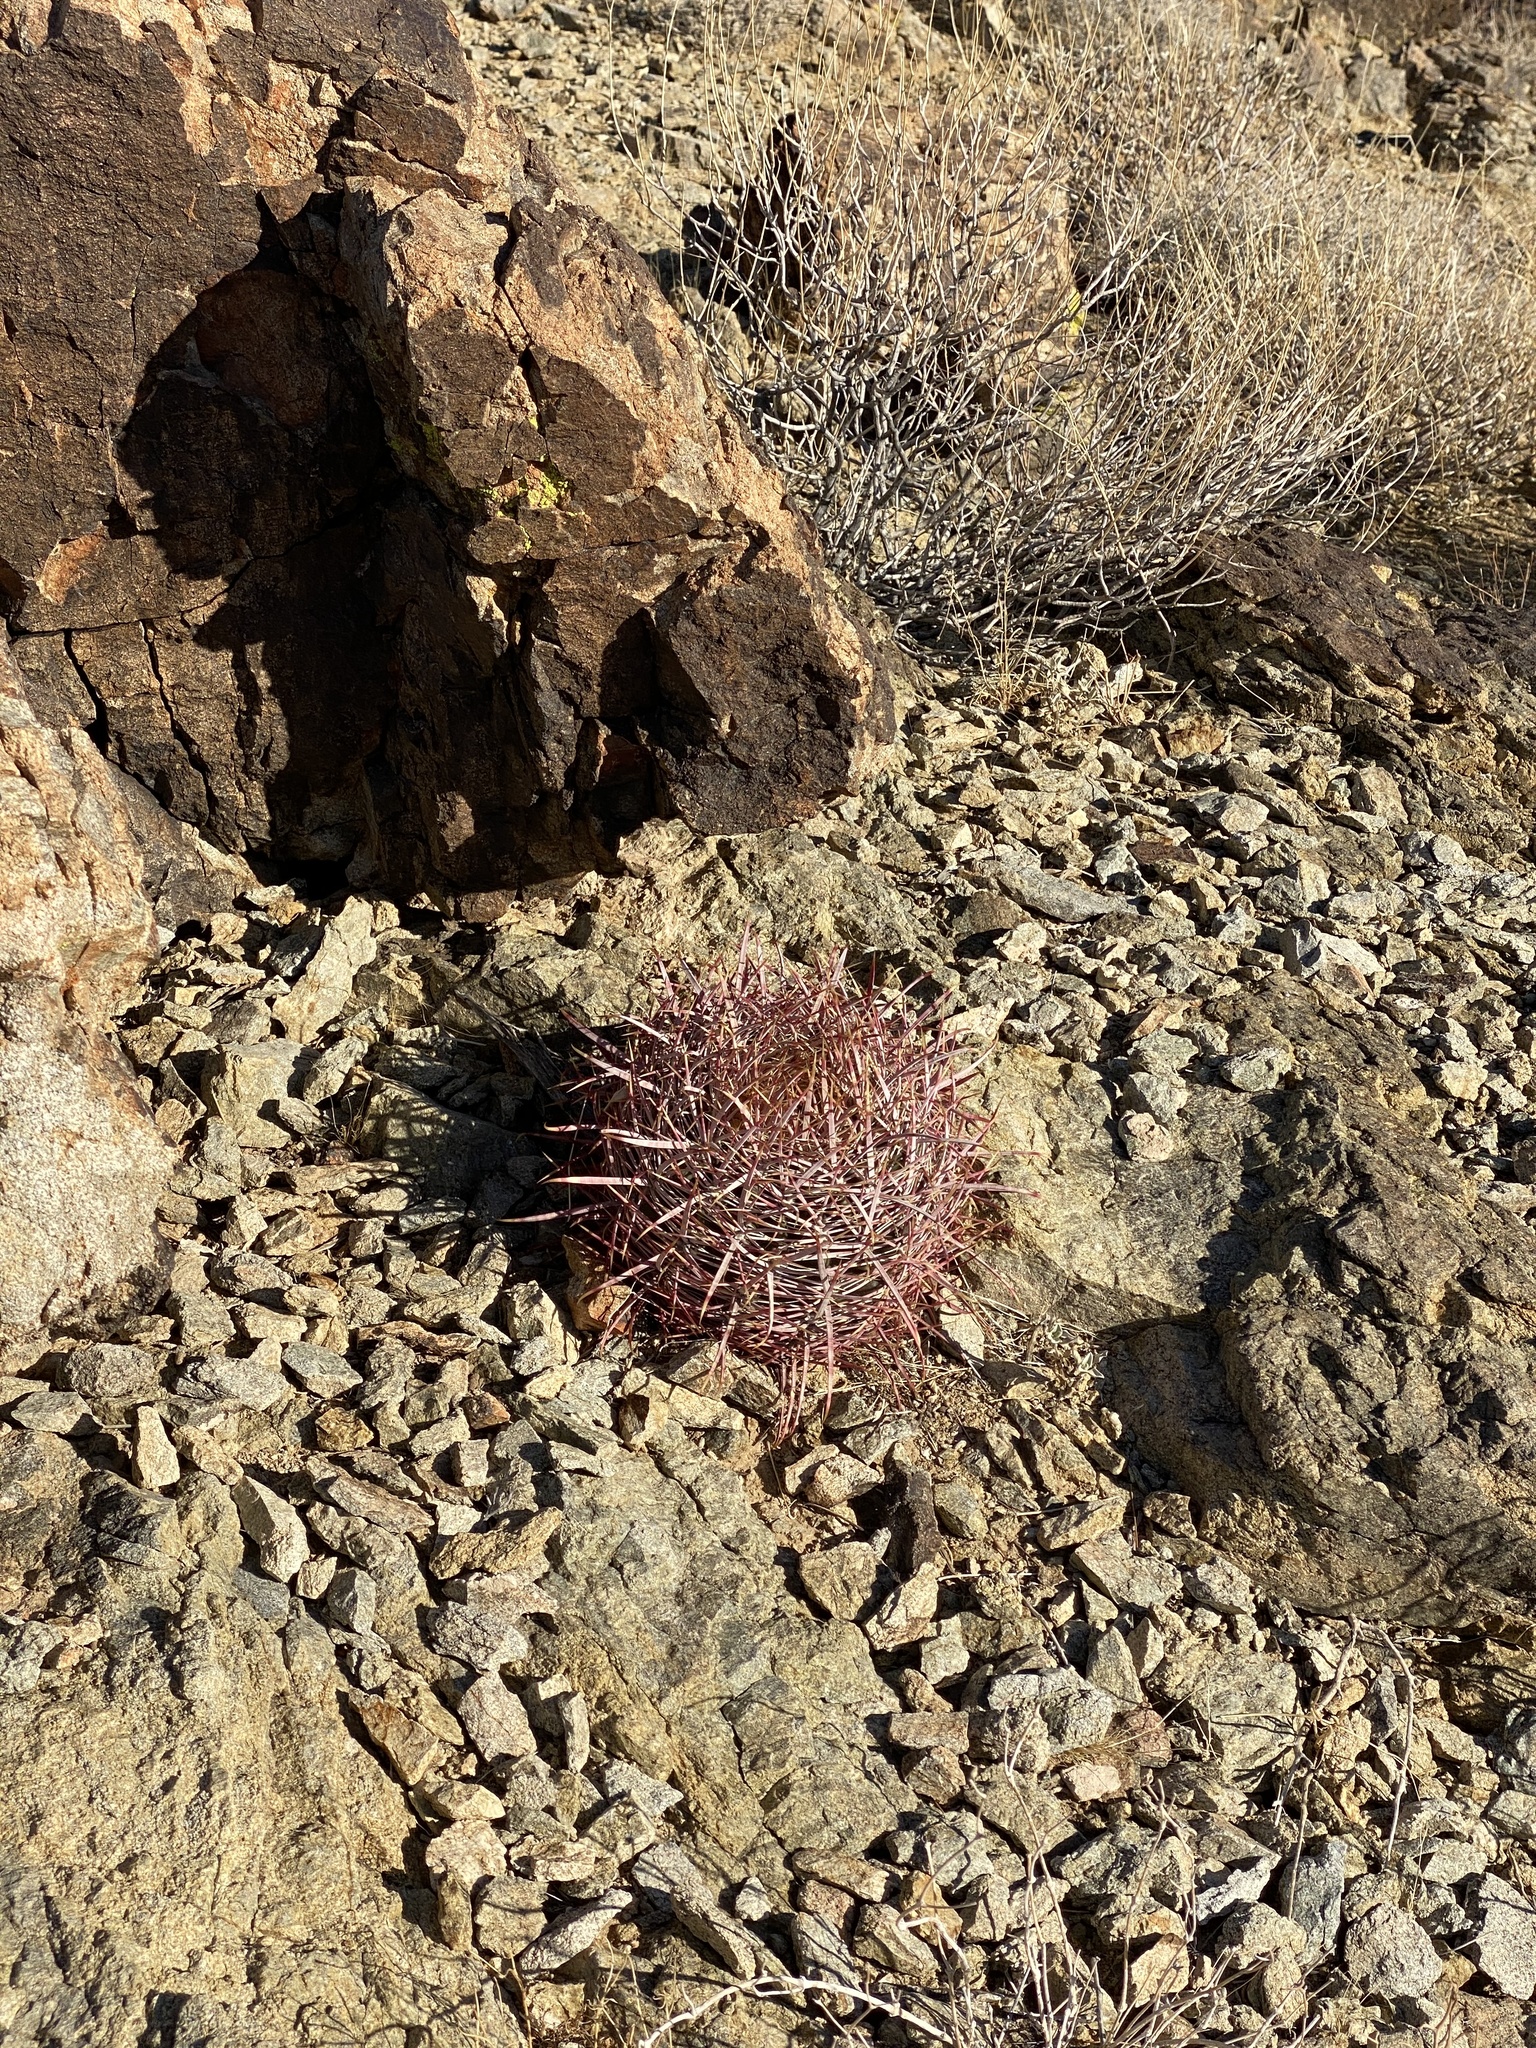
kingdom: Plantae
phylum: Tracheophyta
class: Magnoliopsida
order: Caryophyllales
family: Cactaceae
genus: Ferocactus
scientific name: Ferocactus cylindraceus
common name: California barrel cactus
